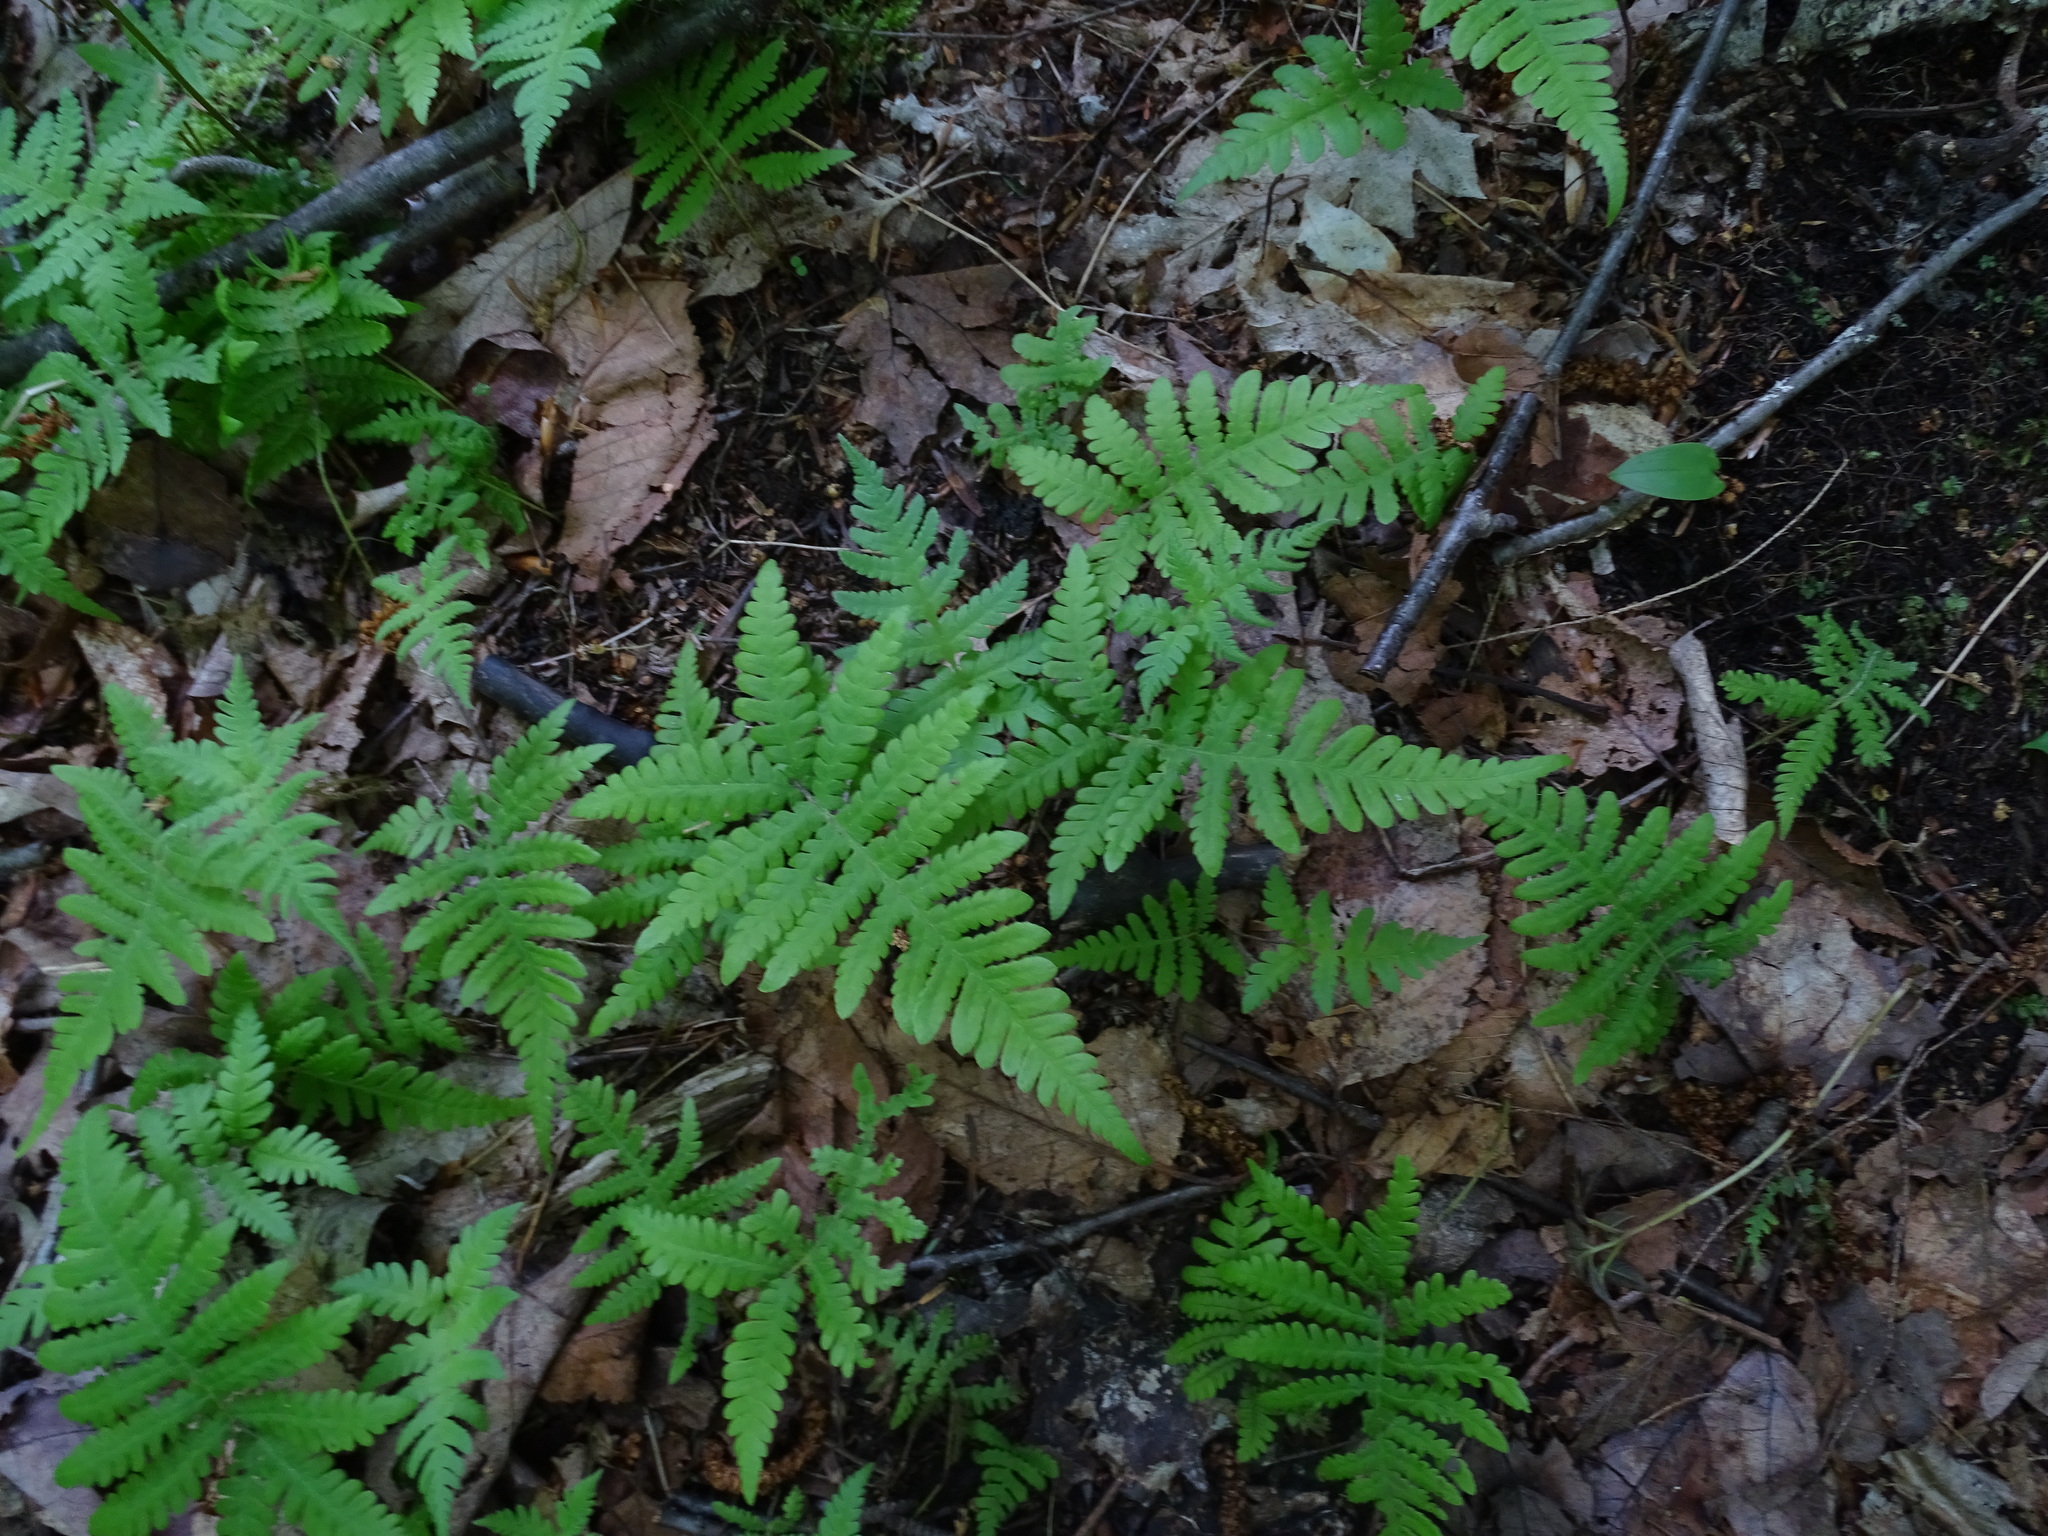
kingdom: Plantae
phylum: Tracheophyta
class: Polypodiopsida
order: Polypodiales
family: Thelypteridaceae
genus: Phegopteris
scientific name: Phegopteris connectilis
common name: Beech fern
